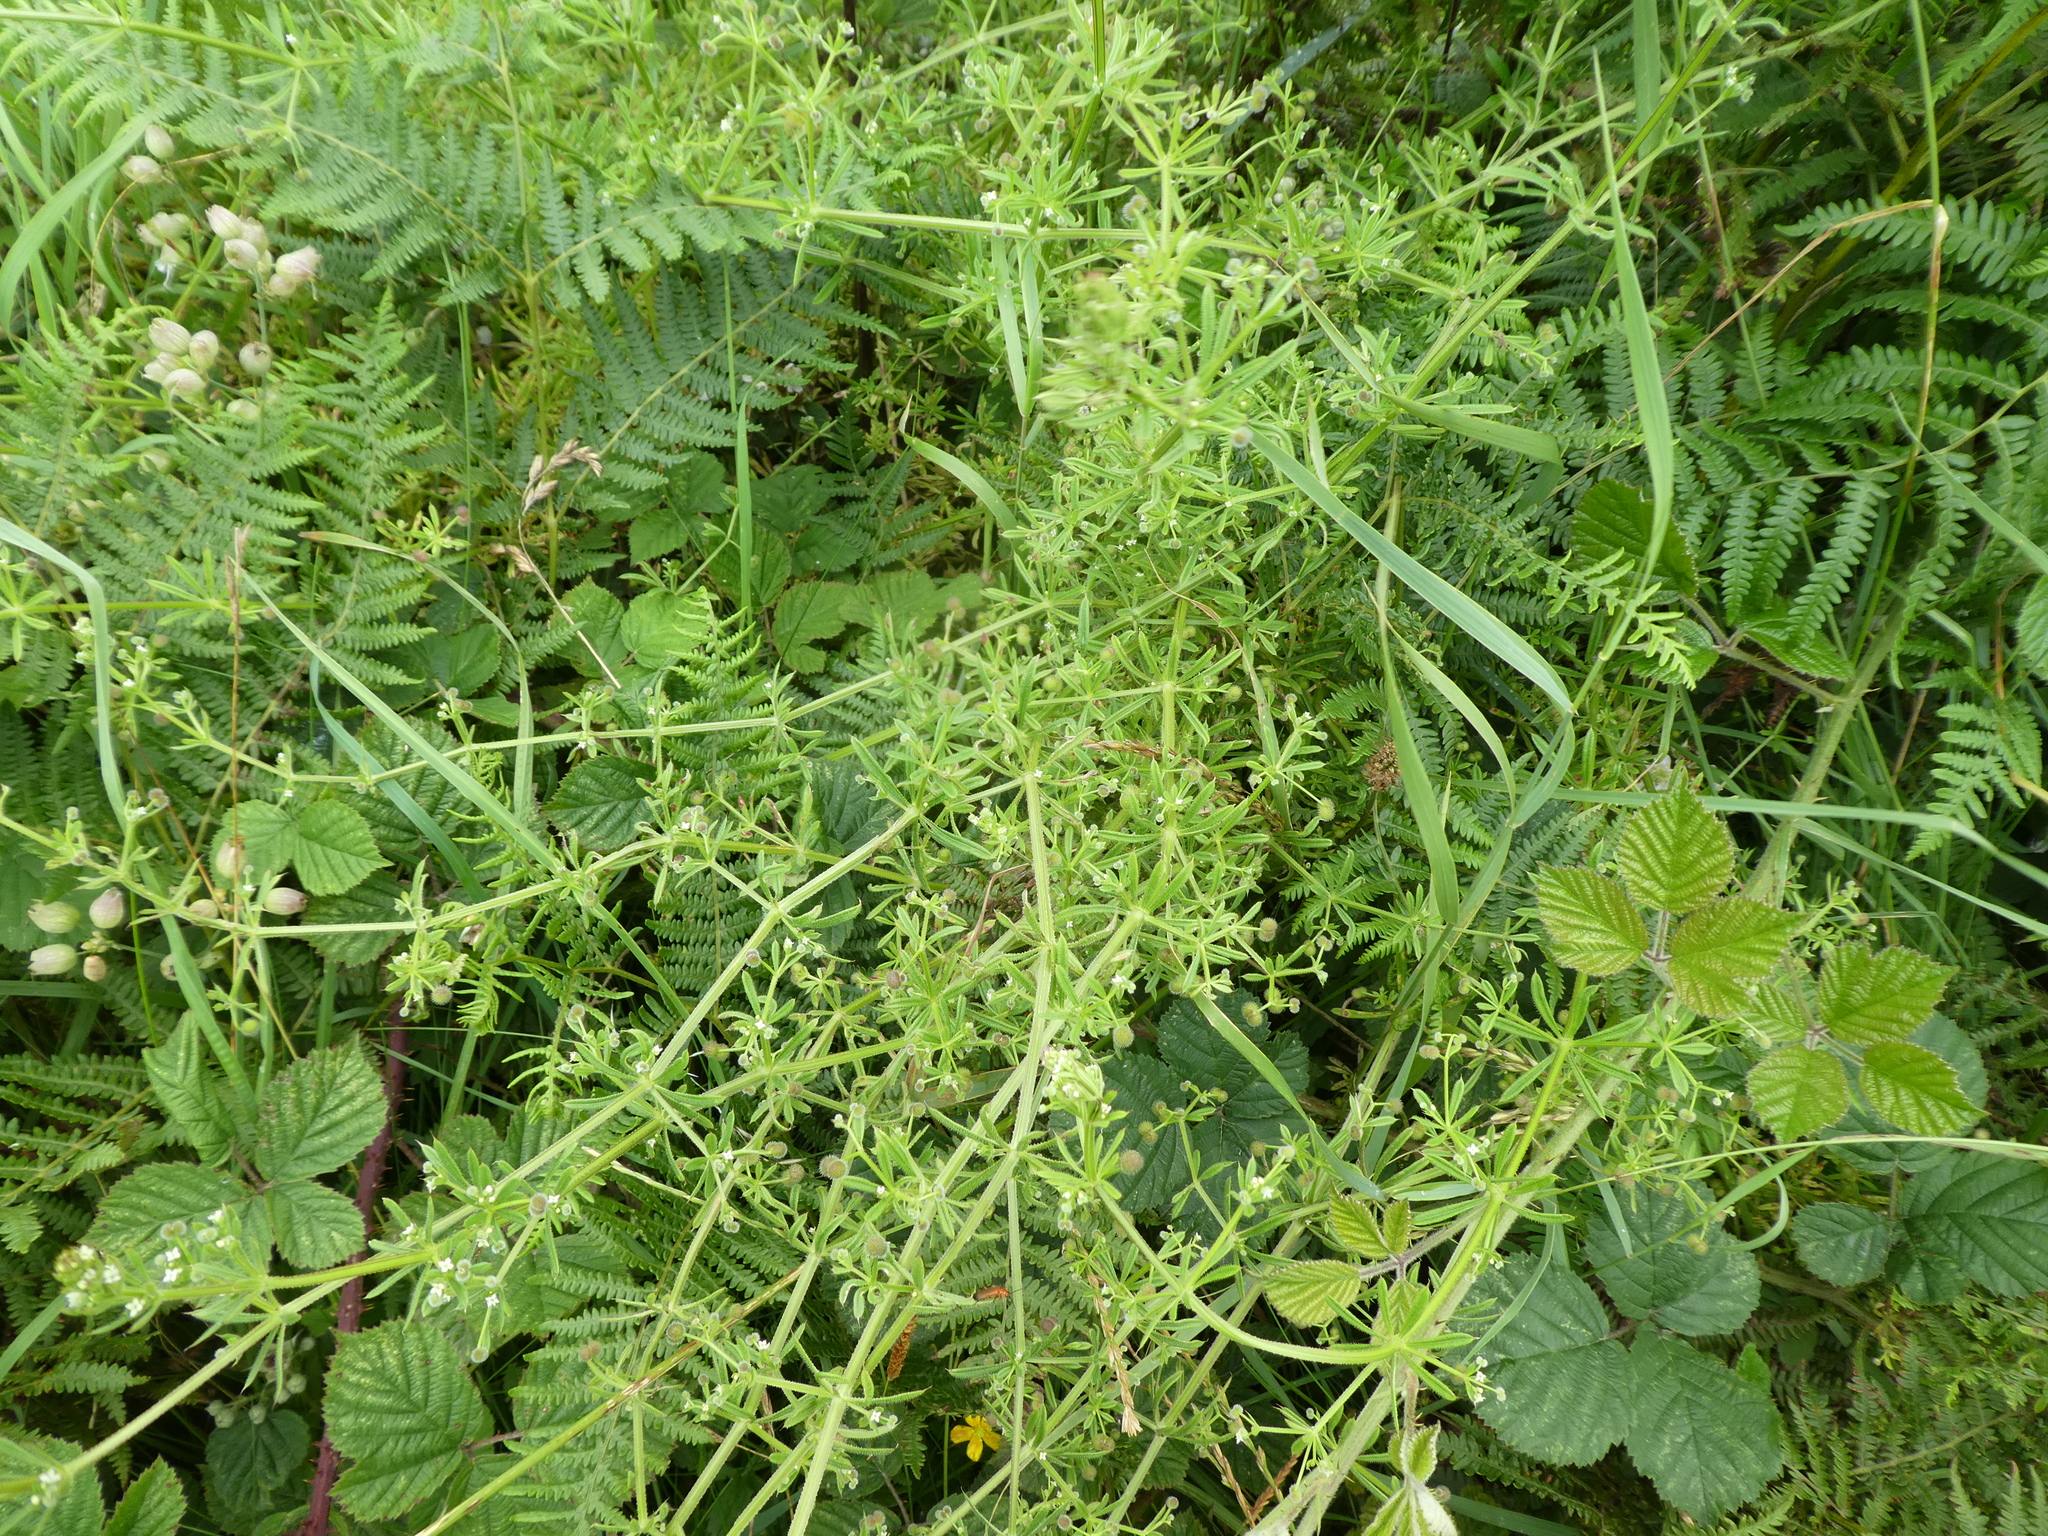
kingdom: Plantae
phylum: Tracheophyta
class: Magnoliopsida
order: Gentianales
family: Rubiaceae
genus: Galium
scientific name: Galium aparine
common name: Cleavers
